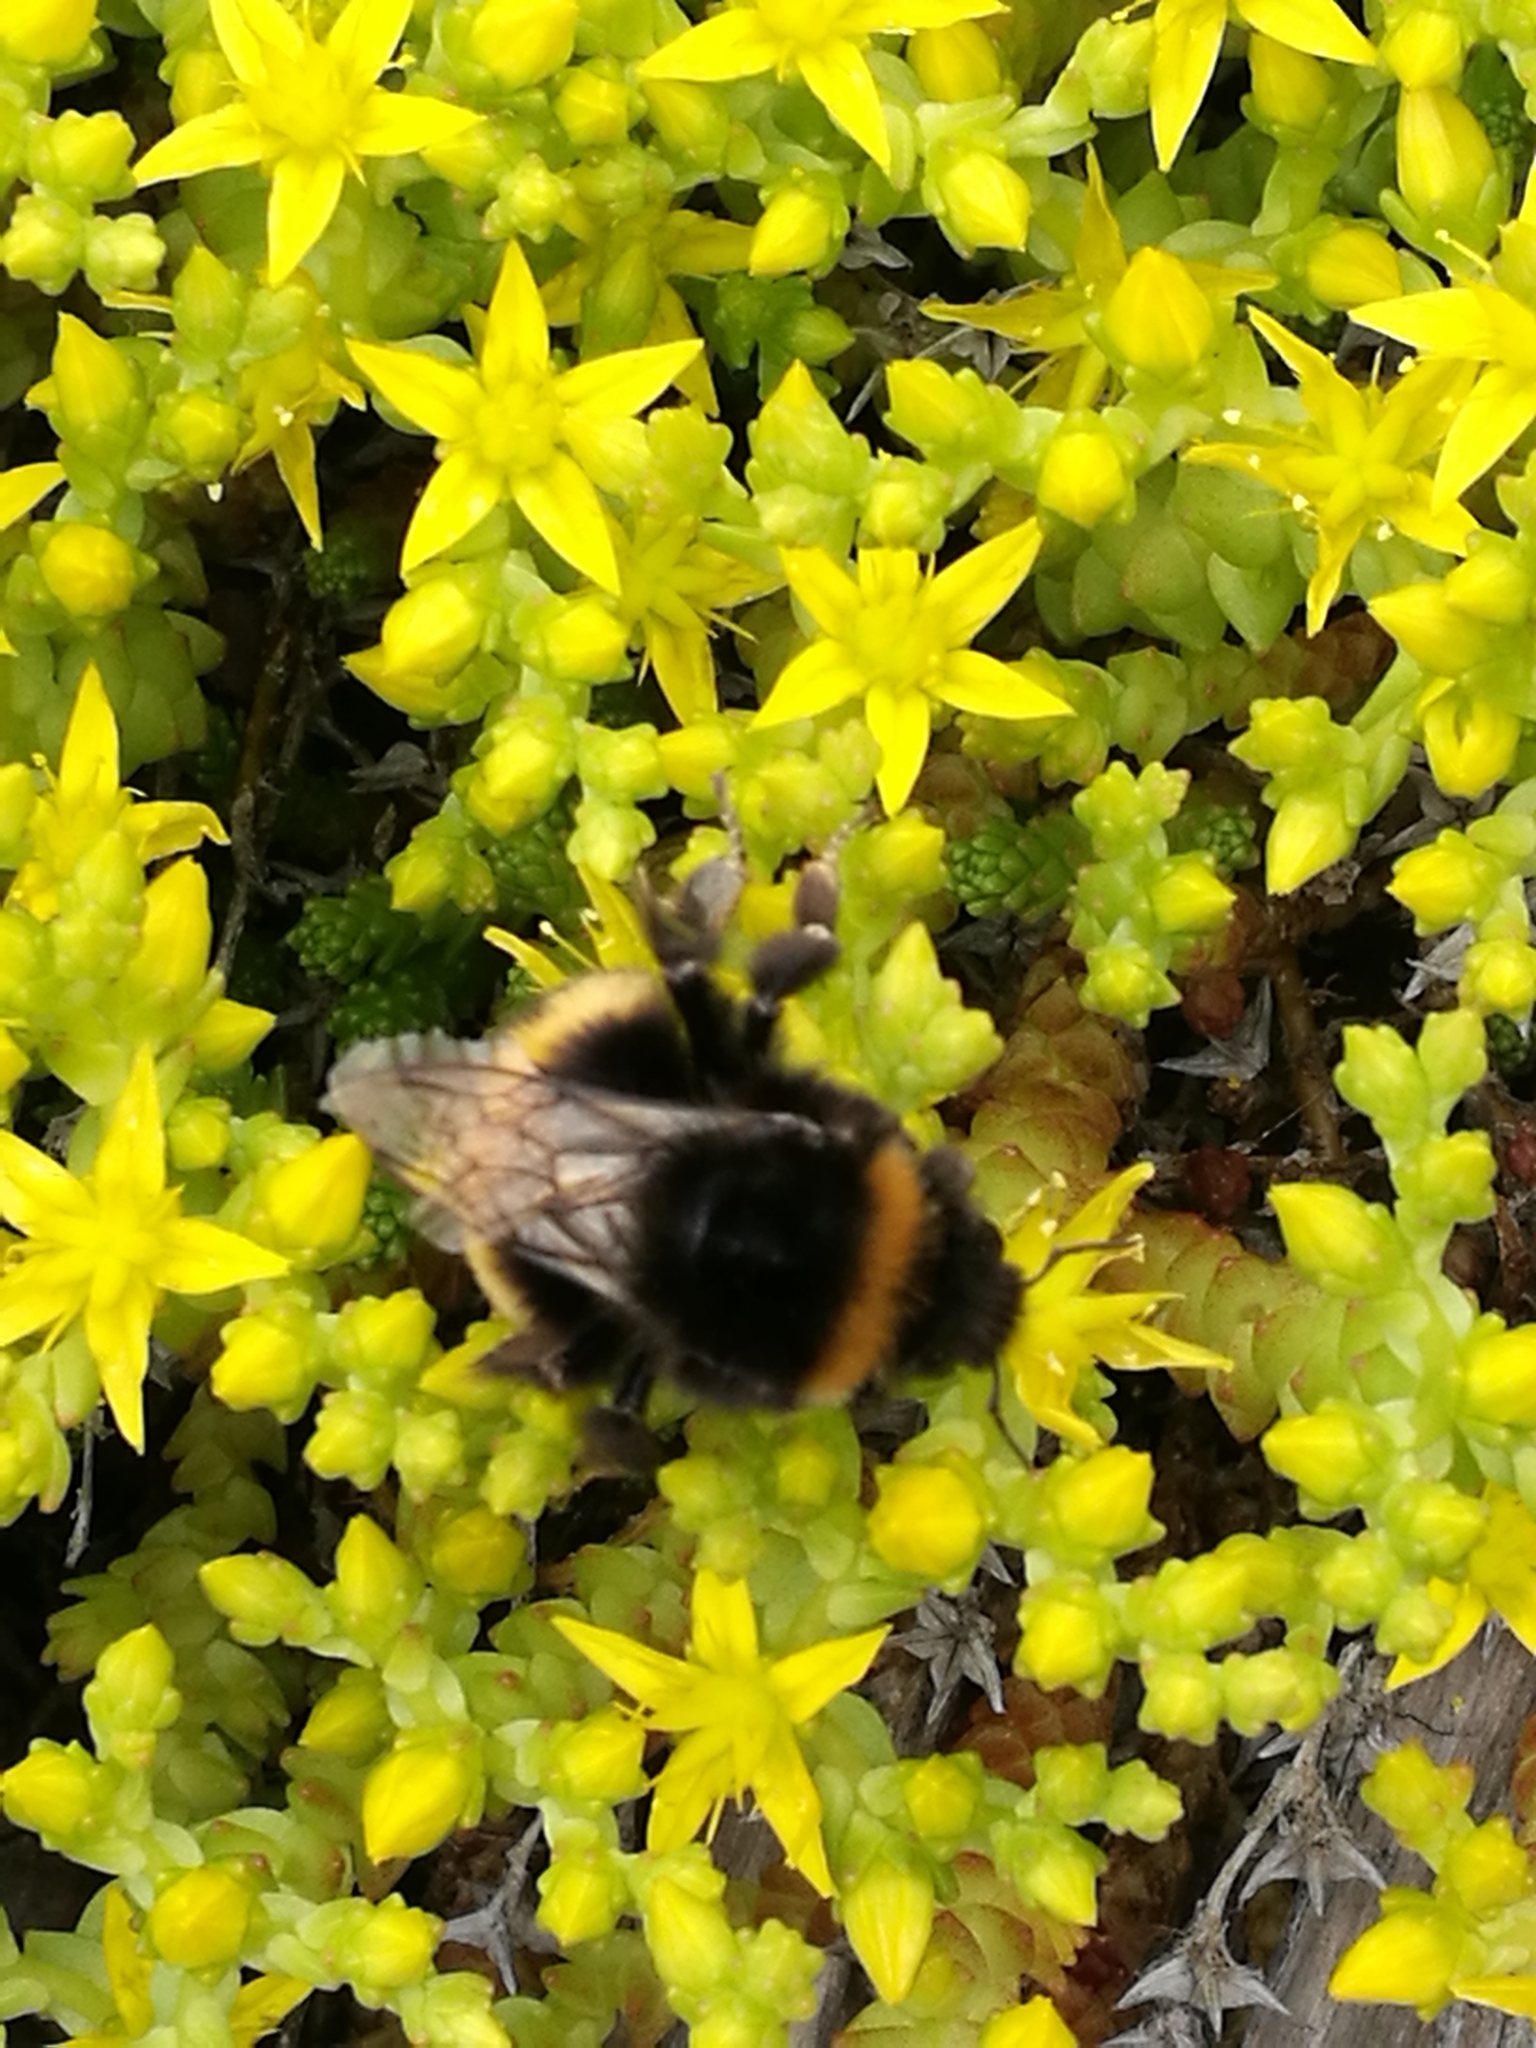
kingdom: Plantae
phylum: Tracheophyta
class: Magnoliopsida
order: Saxifragales
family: Crassulaceae
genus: Sedum
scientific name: Sedum acre
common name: Biting stonecrop
